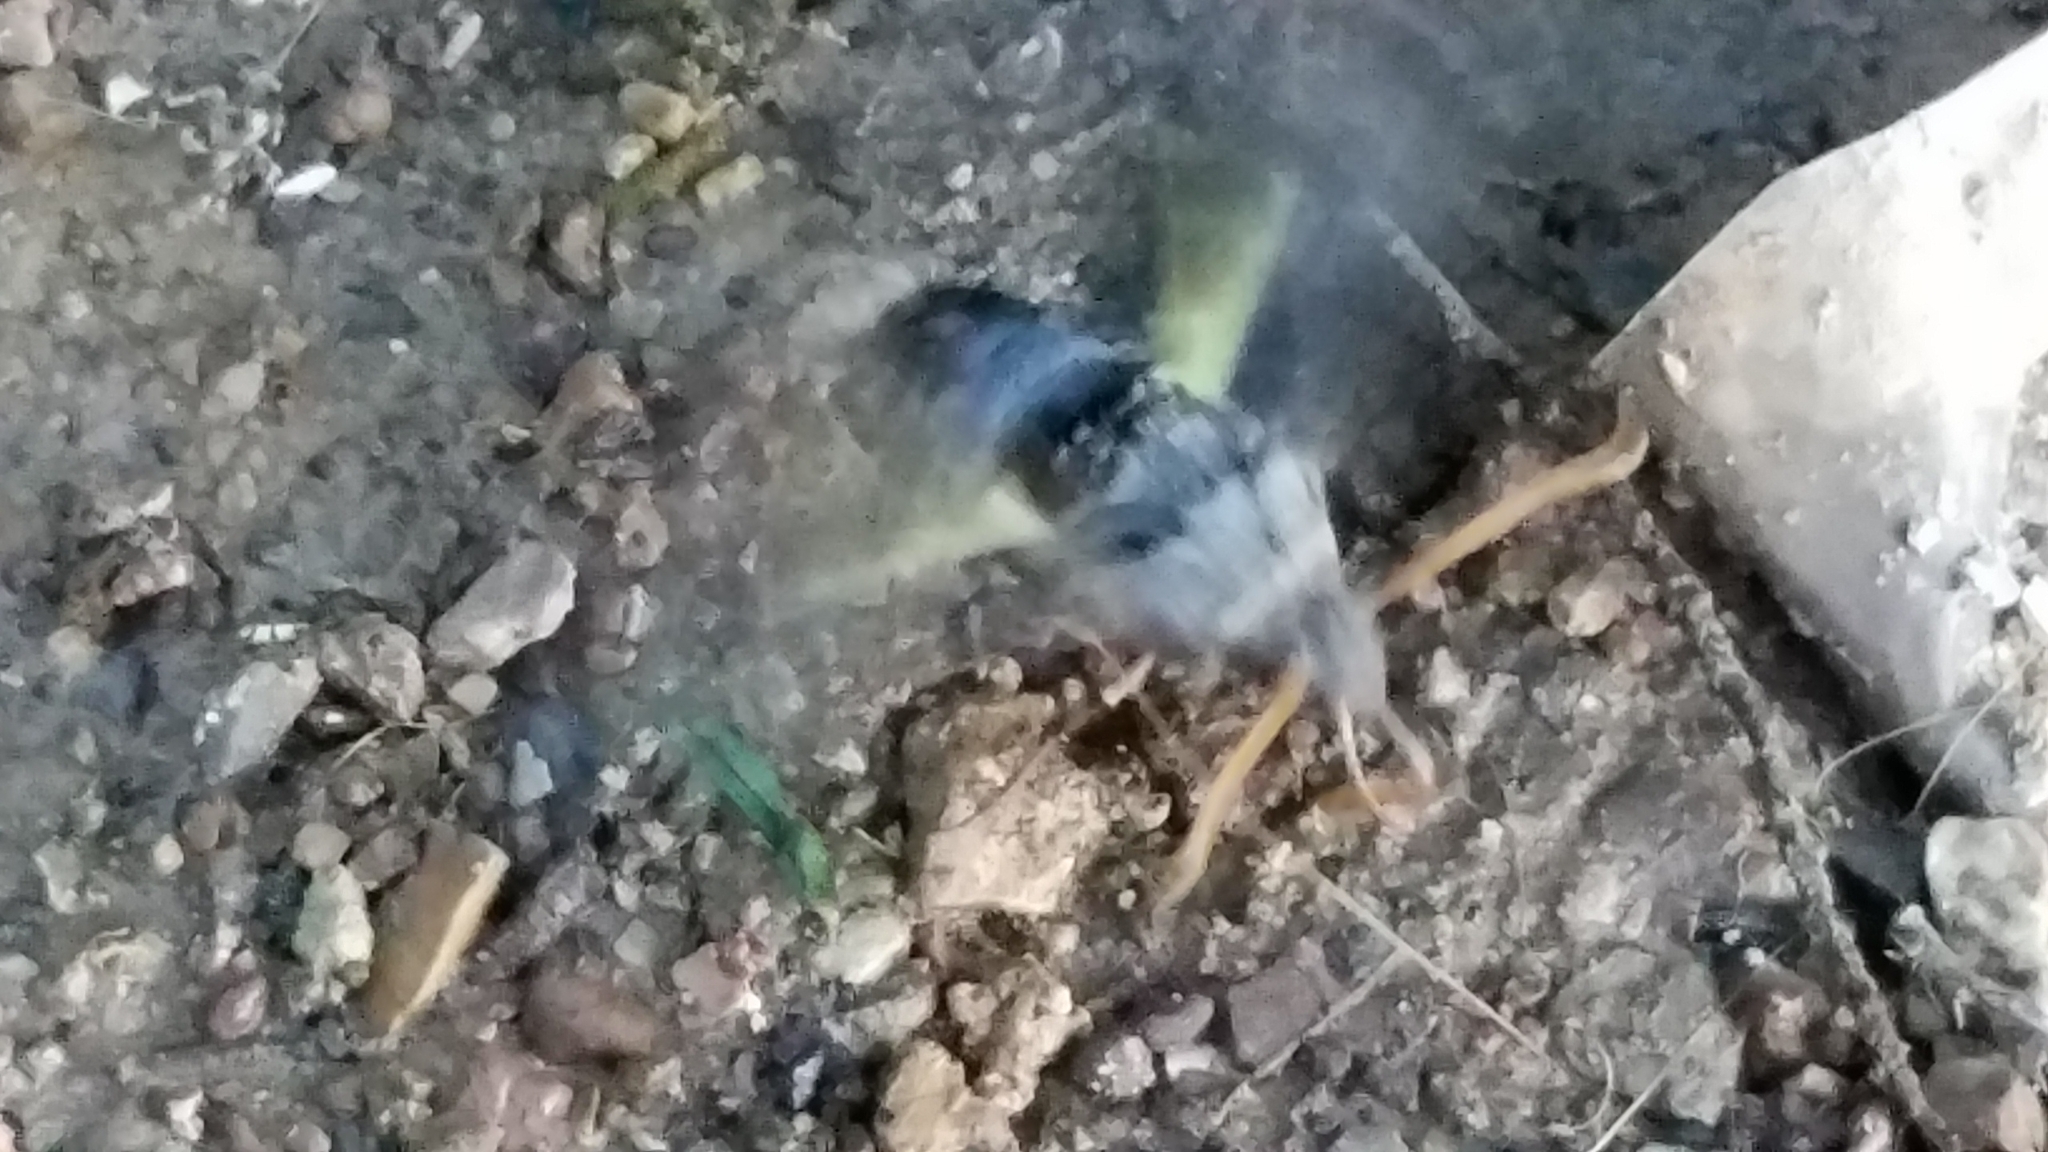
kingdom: Animalia
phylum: Arthropoda
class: Insecta
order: Lepidoptera
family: Sphingidae
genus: Sphecodina
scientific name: Sphecodina abbottii
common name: Abbott's sphinx
